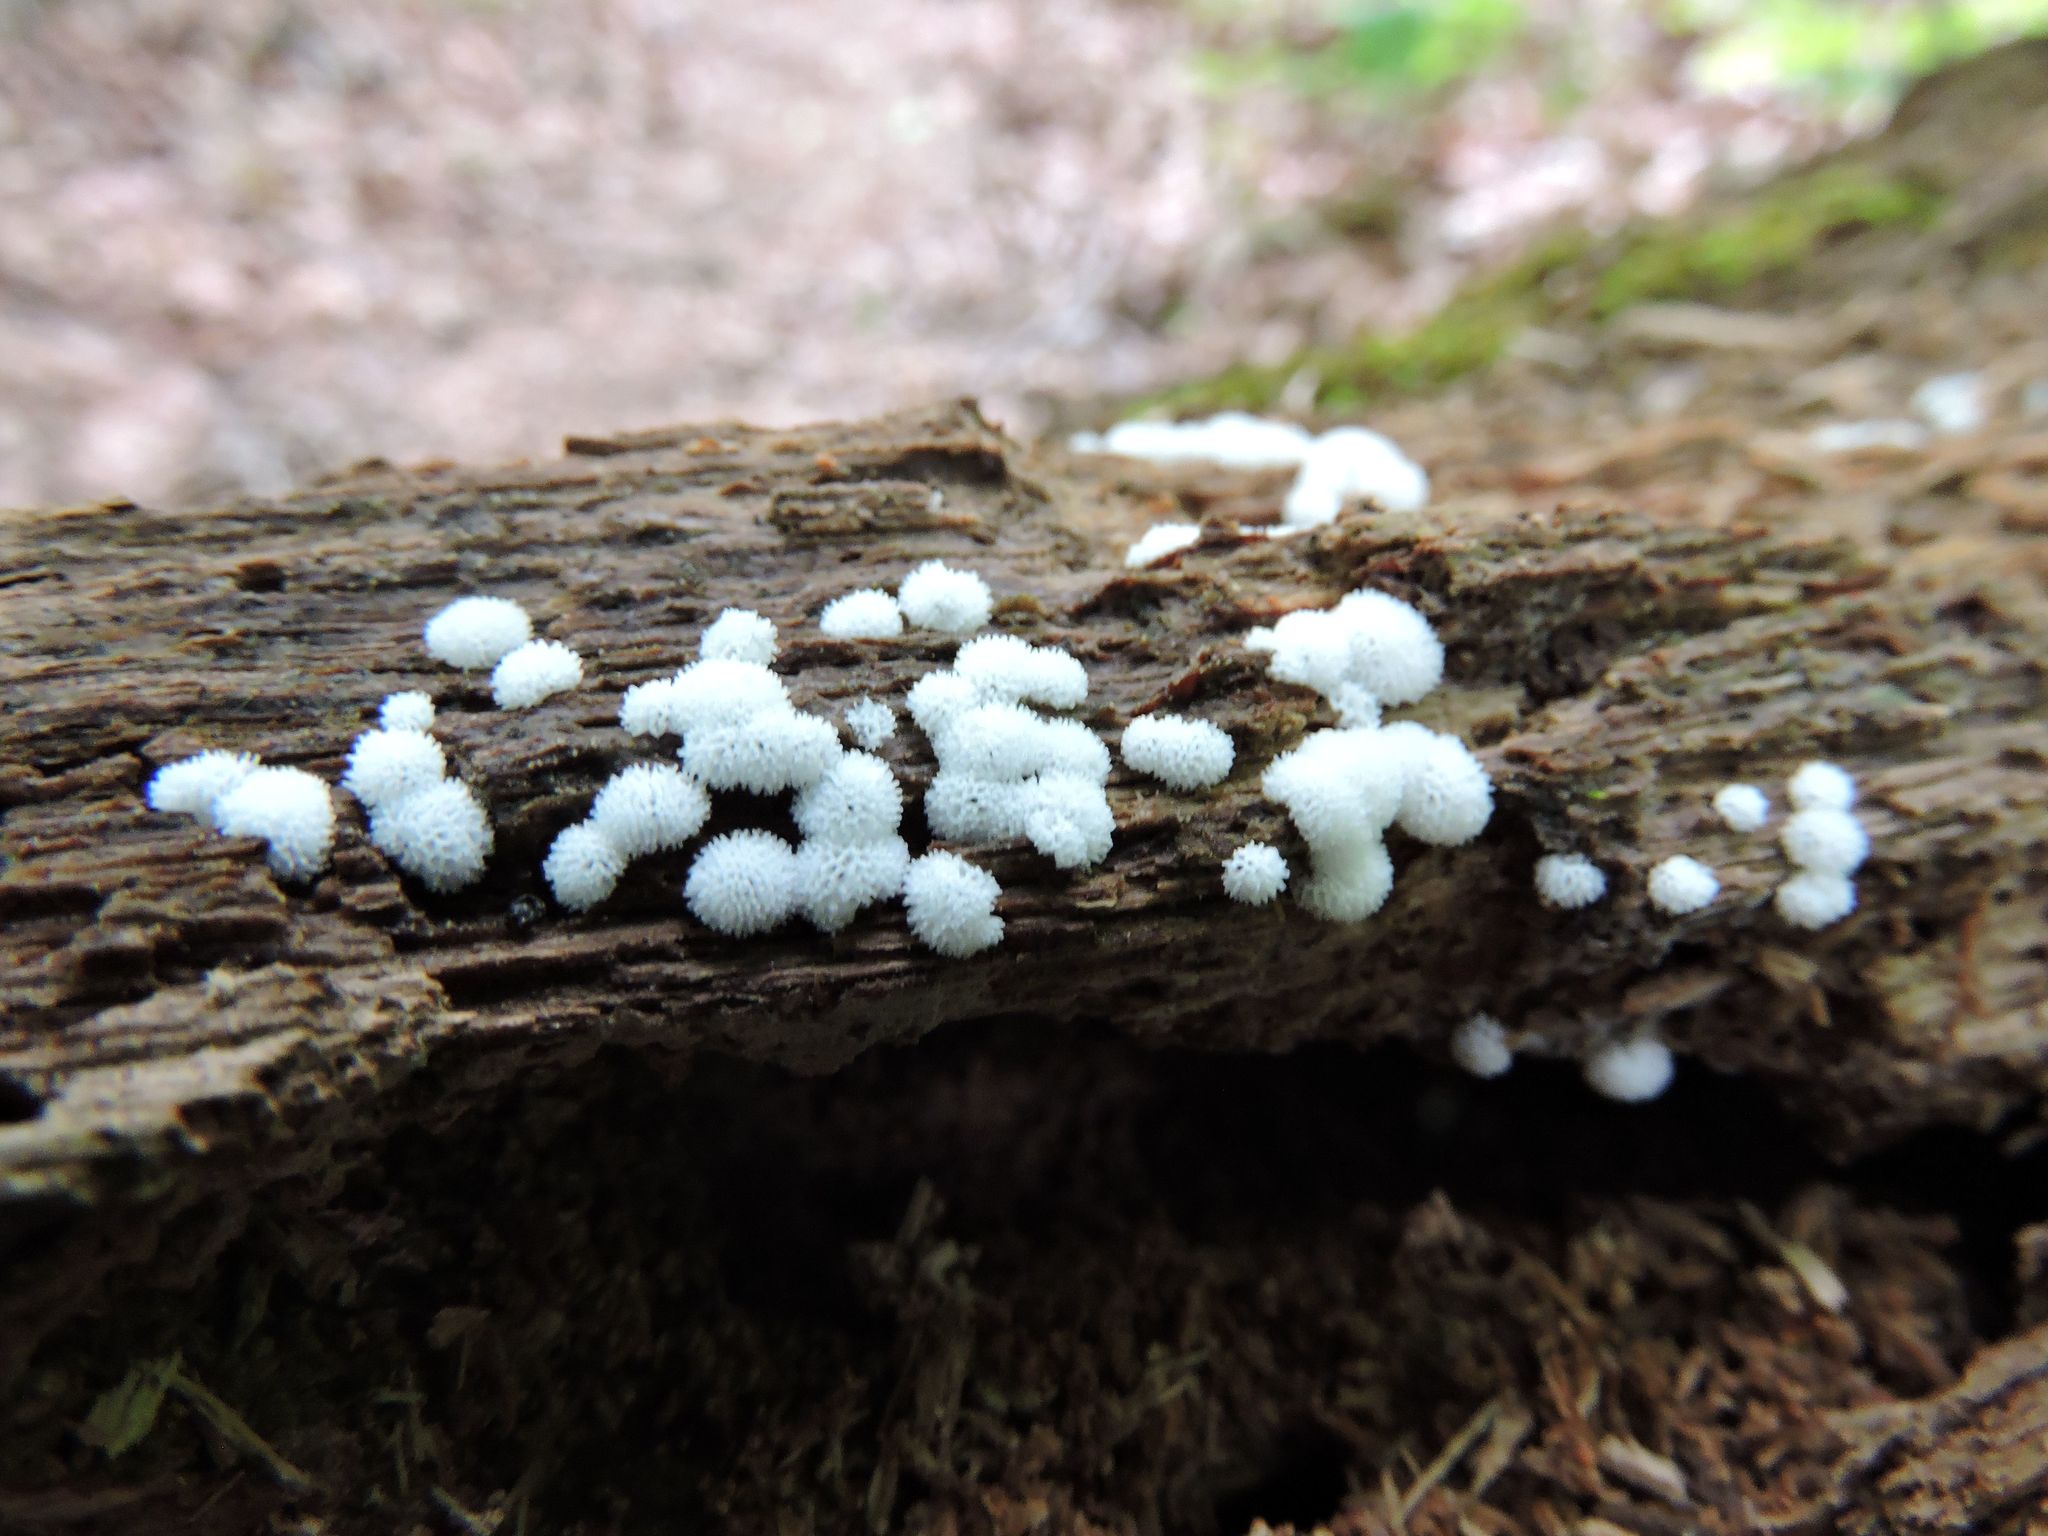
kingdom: Protozoa
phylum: Mycetozoa
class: Protosteliomycetes
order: Ceratiomyxales
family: Ceratiomyxaceae
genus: Ceratiomyxa
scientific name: Ceratiomyxa fruticulosa
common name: Honeycomb coral slime mold
